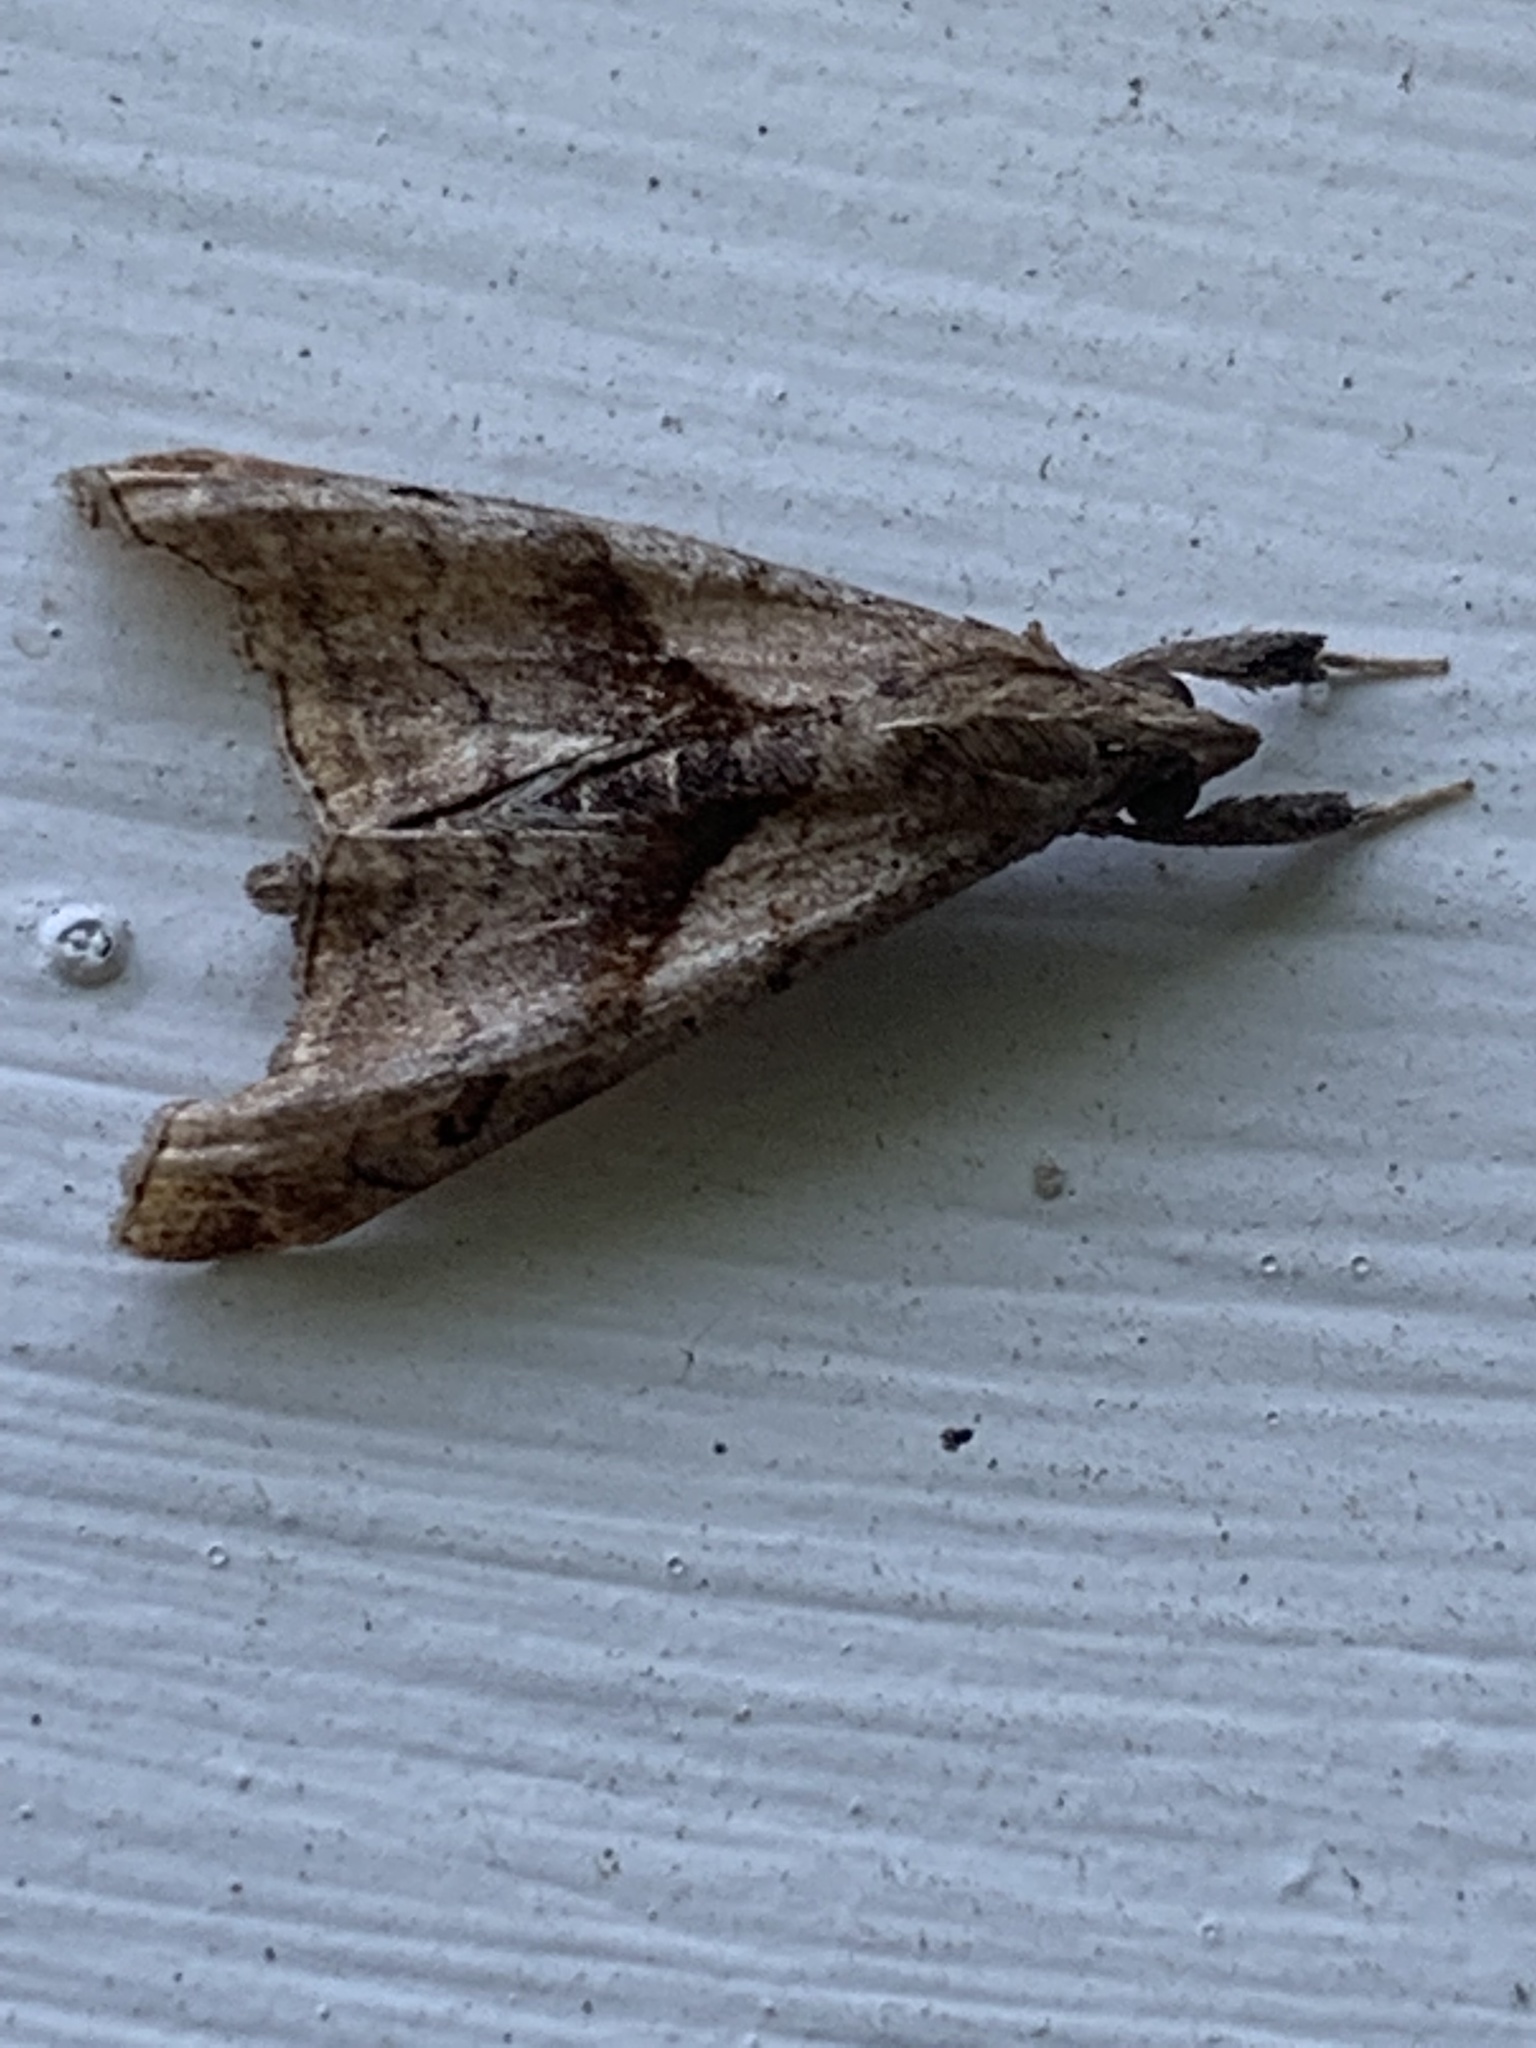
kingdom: Animalia
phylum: Arthropoda
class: Insecta
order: Lepidoptera
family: Erebidae
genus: Palthis
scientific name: Palthis angulalis
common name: Dark-spotted palthis moth
